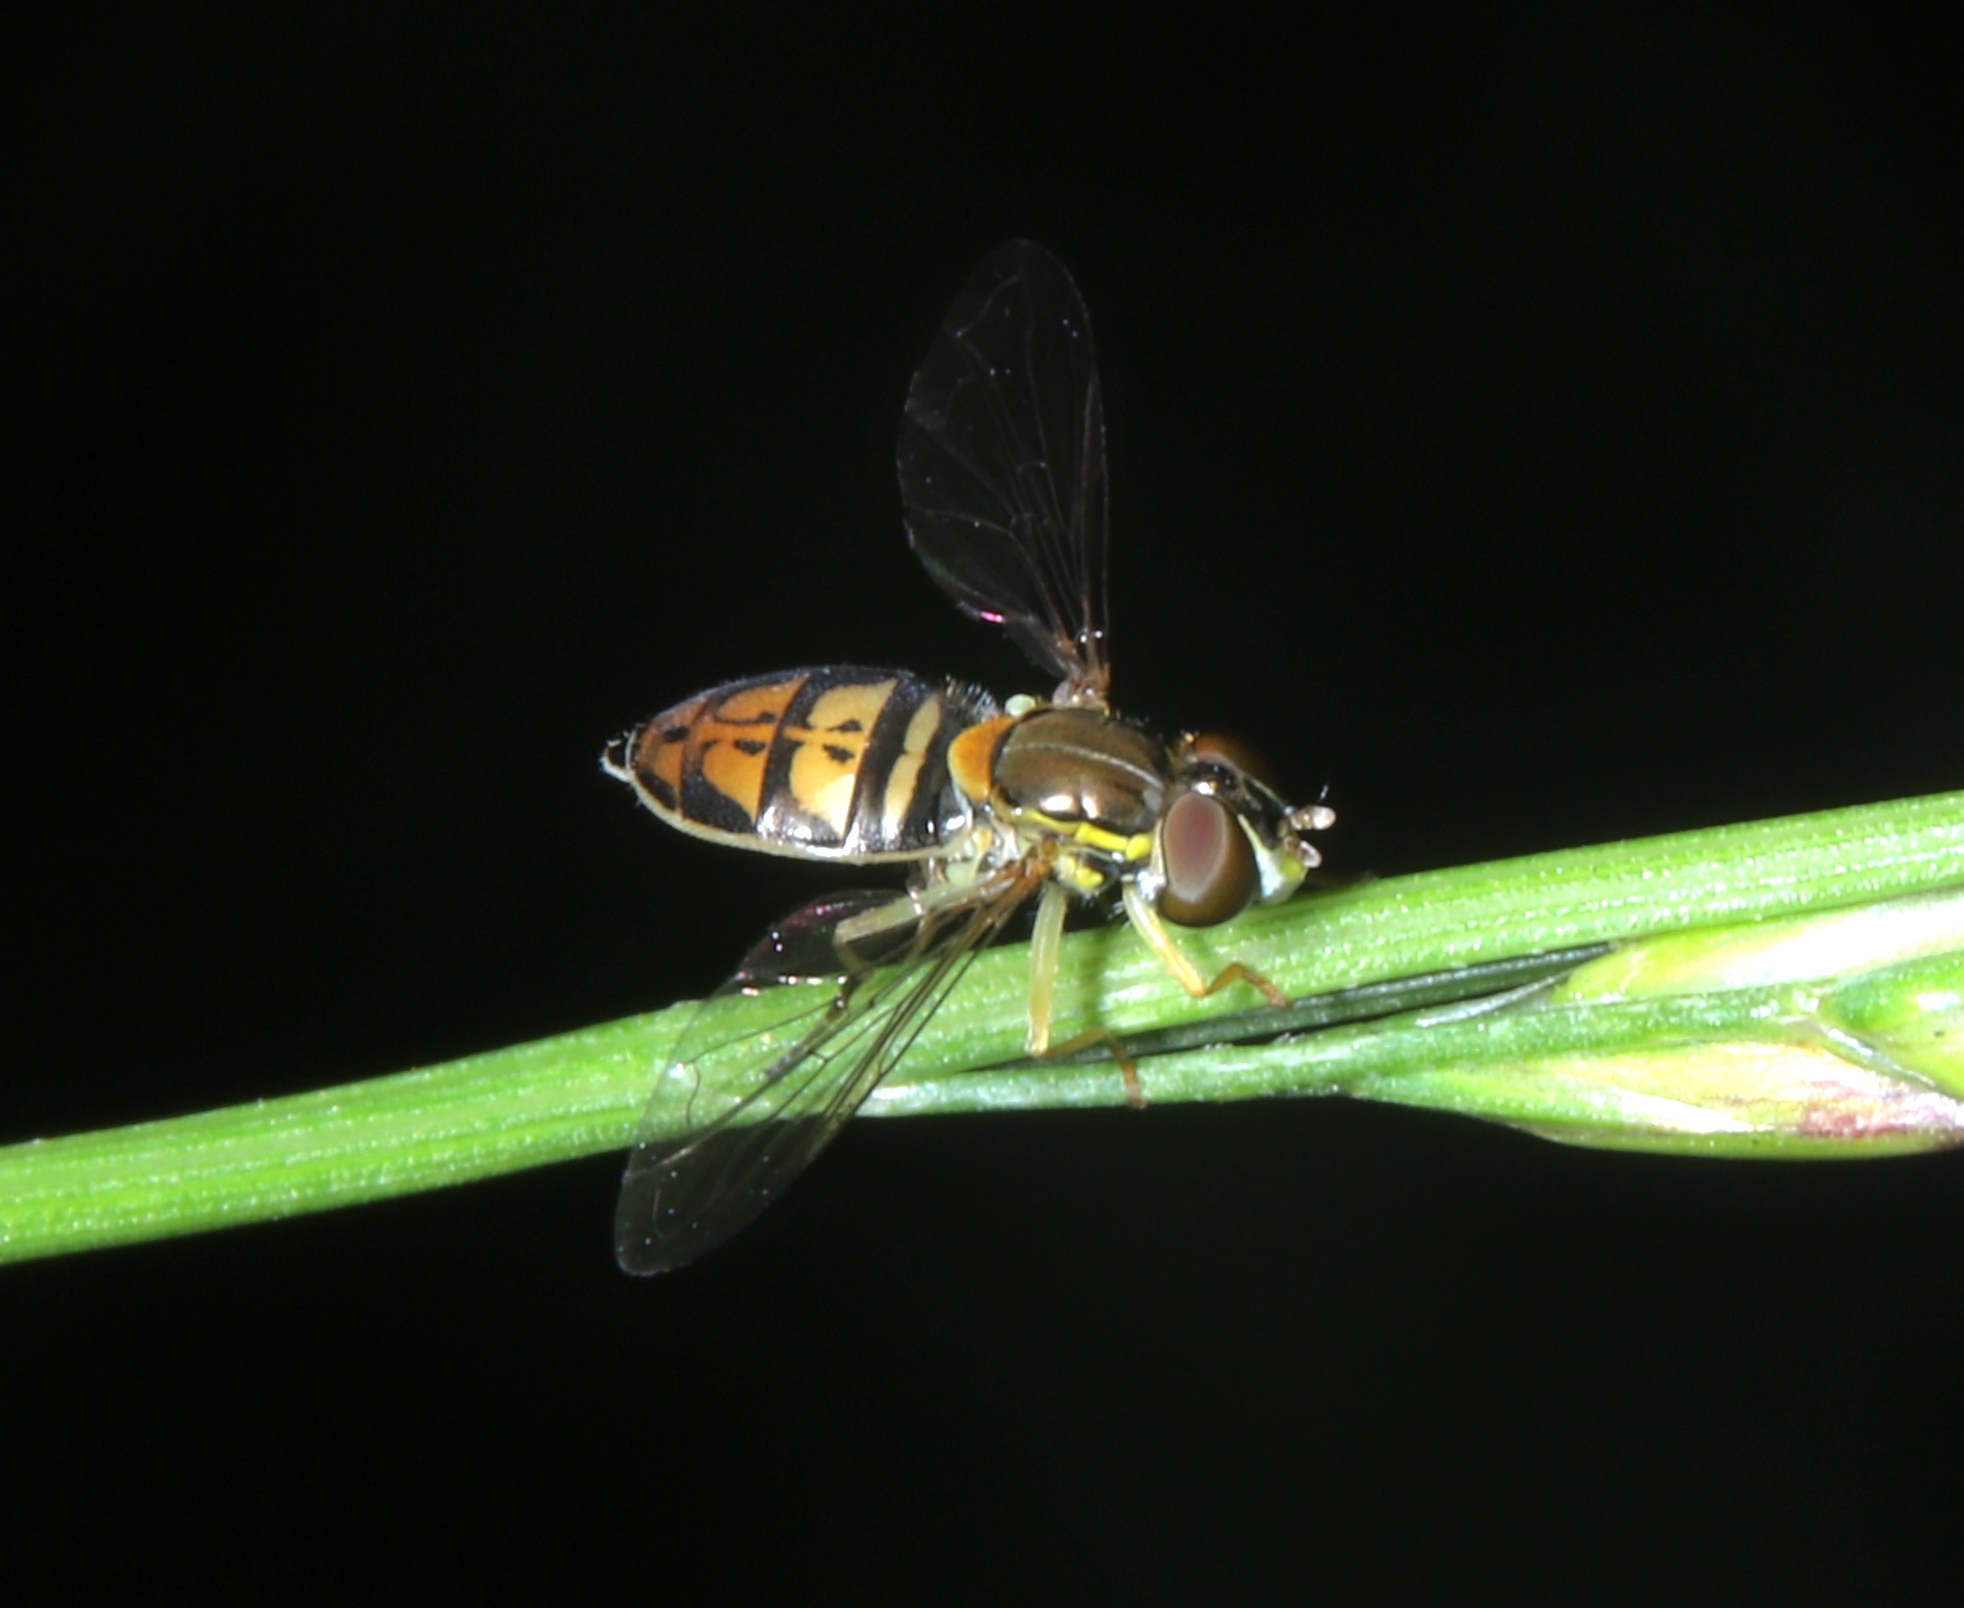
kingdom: Animalia
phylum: Arthropoda
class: Insecta
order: Diptera
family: Syrphidae
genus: Toxomerus
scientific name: Toxomerus marginatus
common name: Syrphid fly
